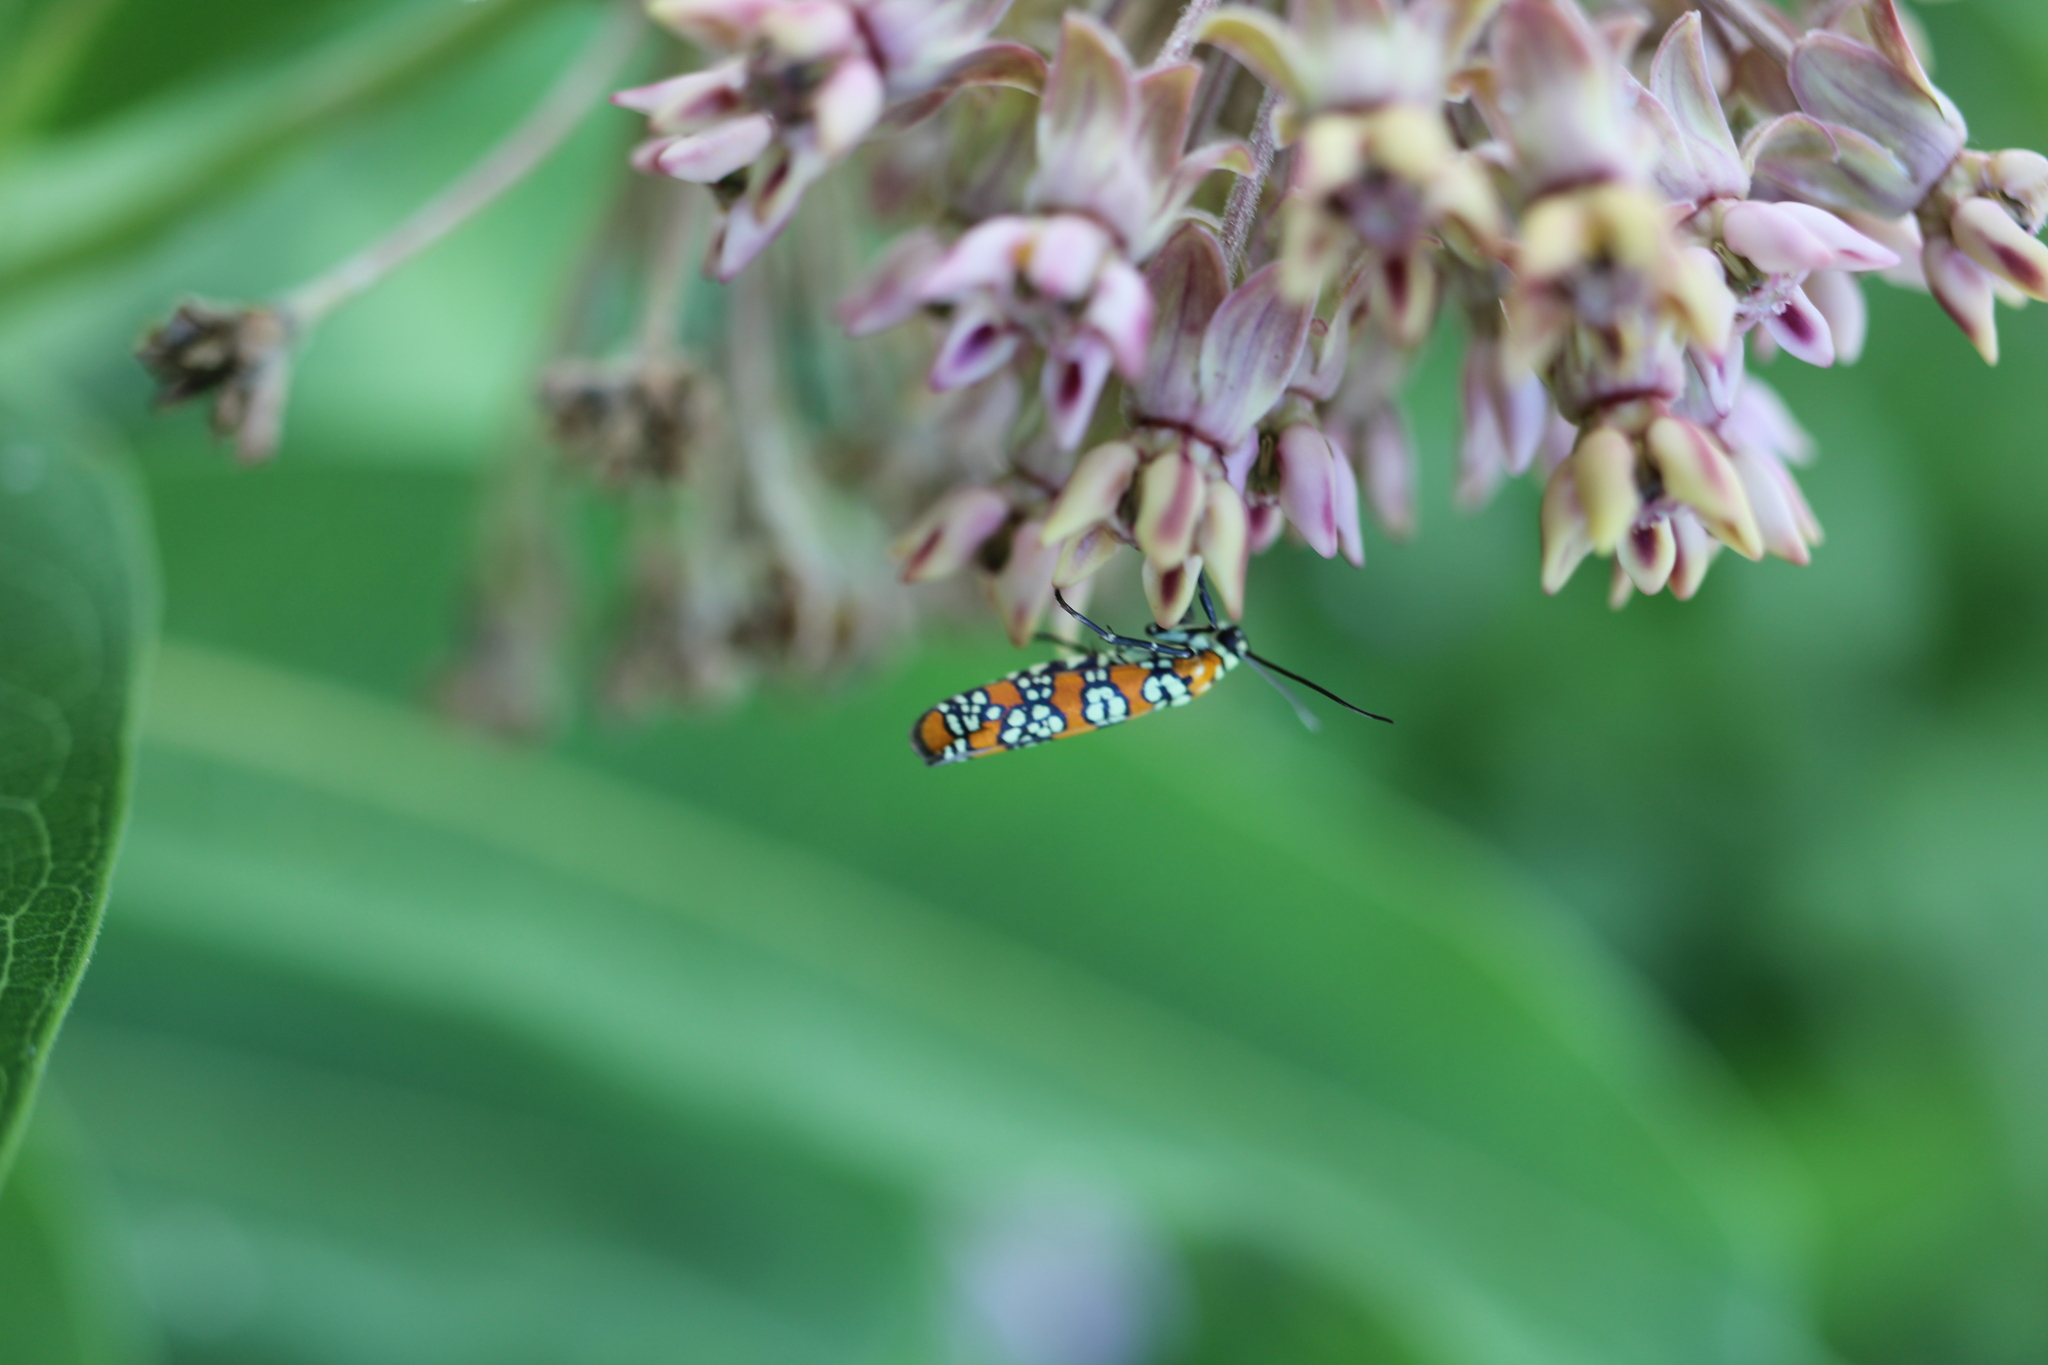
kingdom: Animalia
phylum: Arthropoda
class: Insecta
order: Lepidoptera
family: Attevidae
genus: Atteva
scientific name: Atteva punctella
